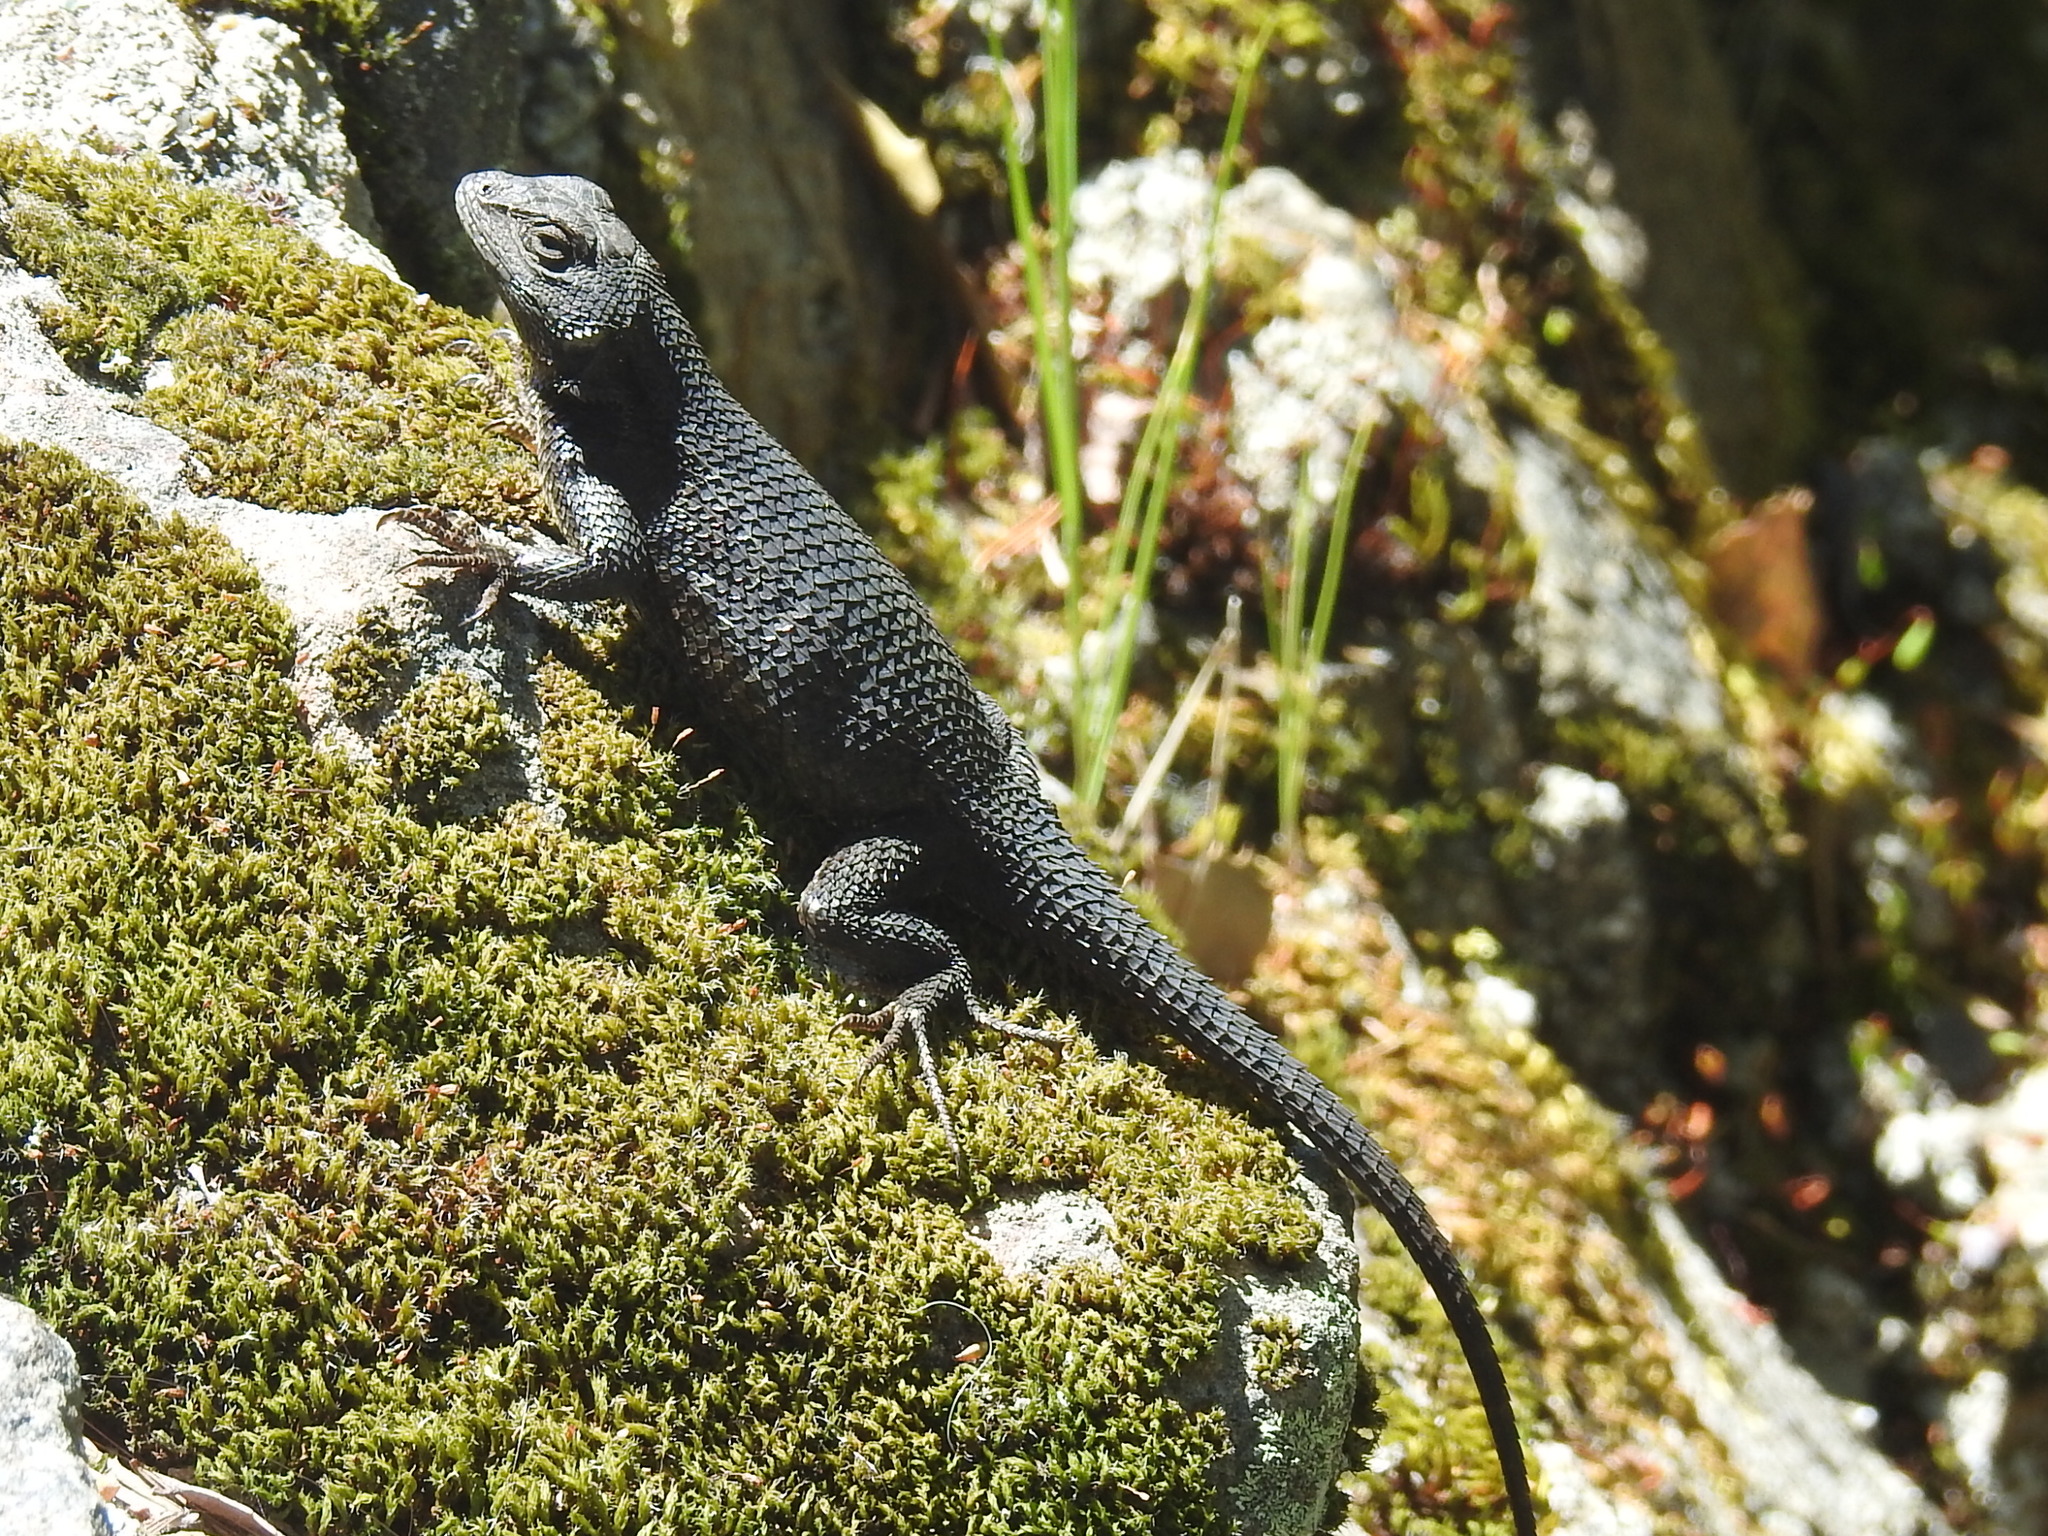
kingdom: Animalia
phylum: Chordata
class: Squamata
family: Phrynosomatidae
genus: Sceloporus
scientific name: Sceloporus occidentalis
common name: Western fence lizard
